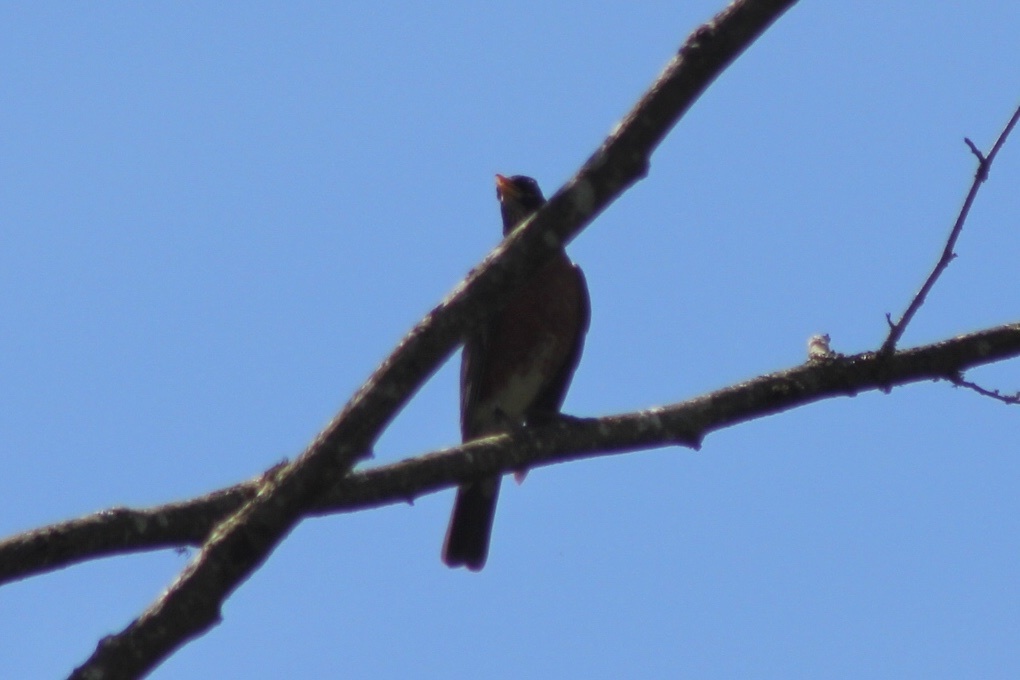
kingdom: Animalia
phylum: Chordata
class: Aves
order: Passeriformes
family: Turdidae
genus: Turdus
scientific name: Turdus migratorius
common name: American robin
